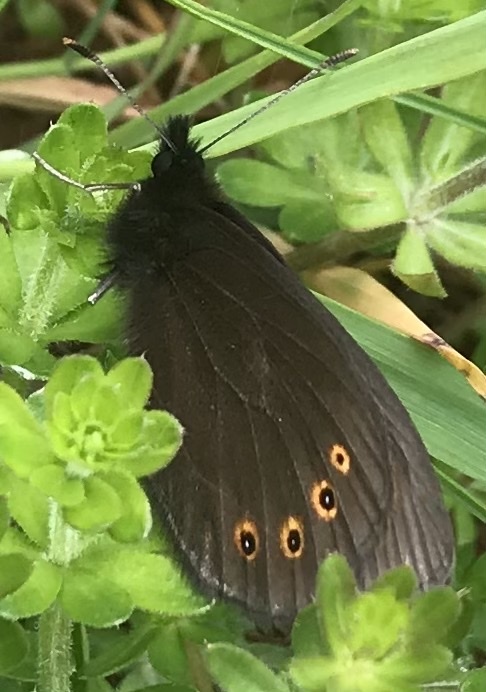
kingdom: Animalia
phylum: Arthropoda
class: Insecta
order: Lepidoptera
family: Nymphalidae
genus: Erebia
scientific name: Erebia medusa
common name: Woodland ringlet
